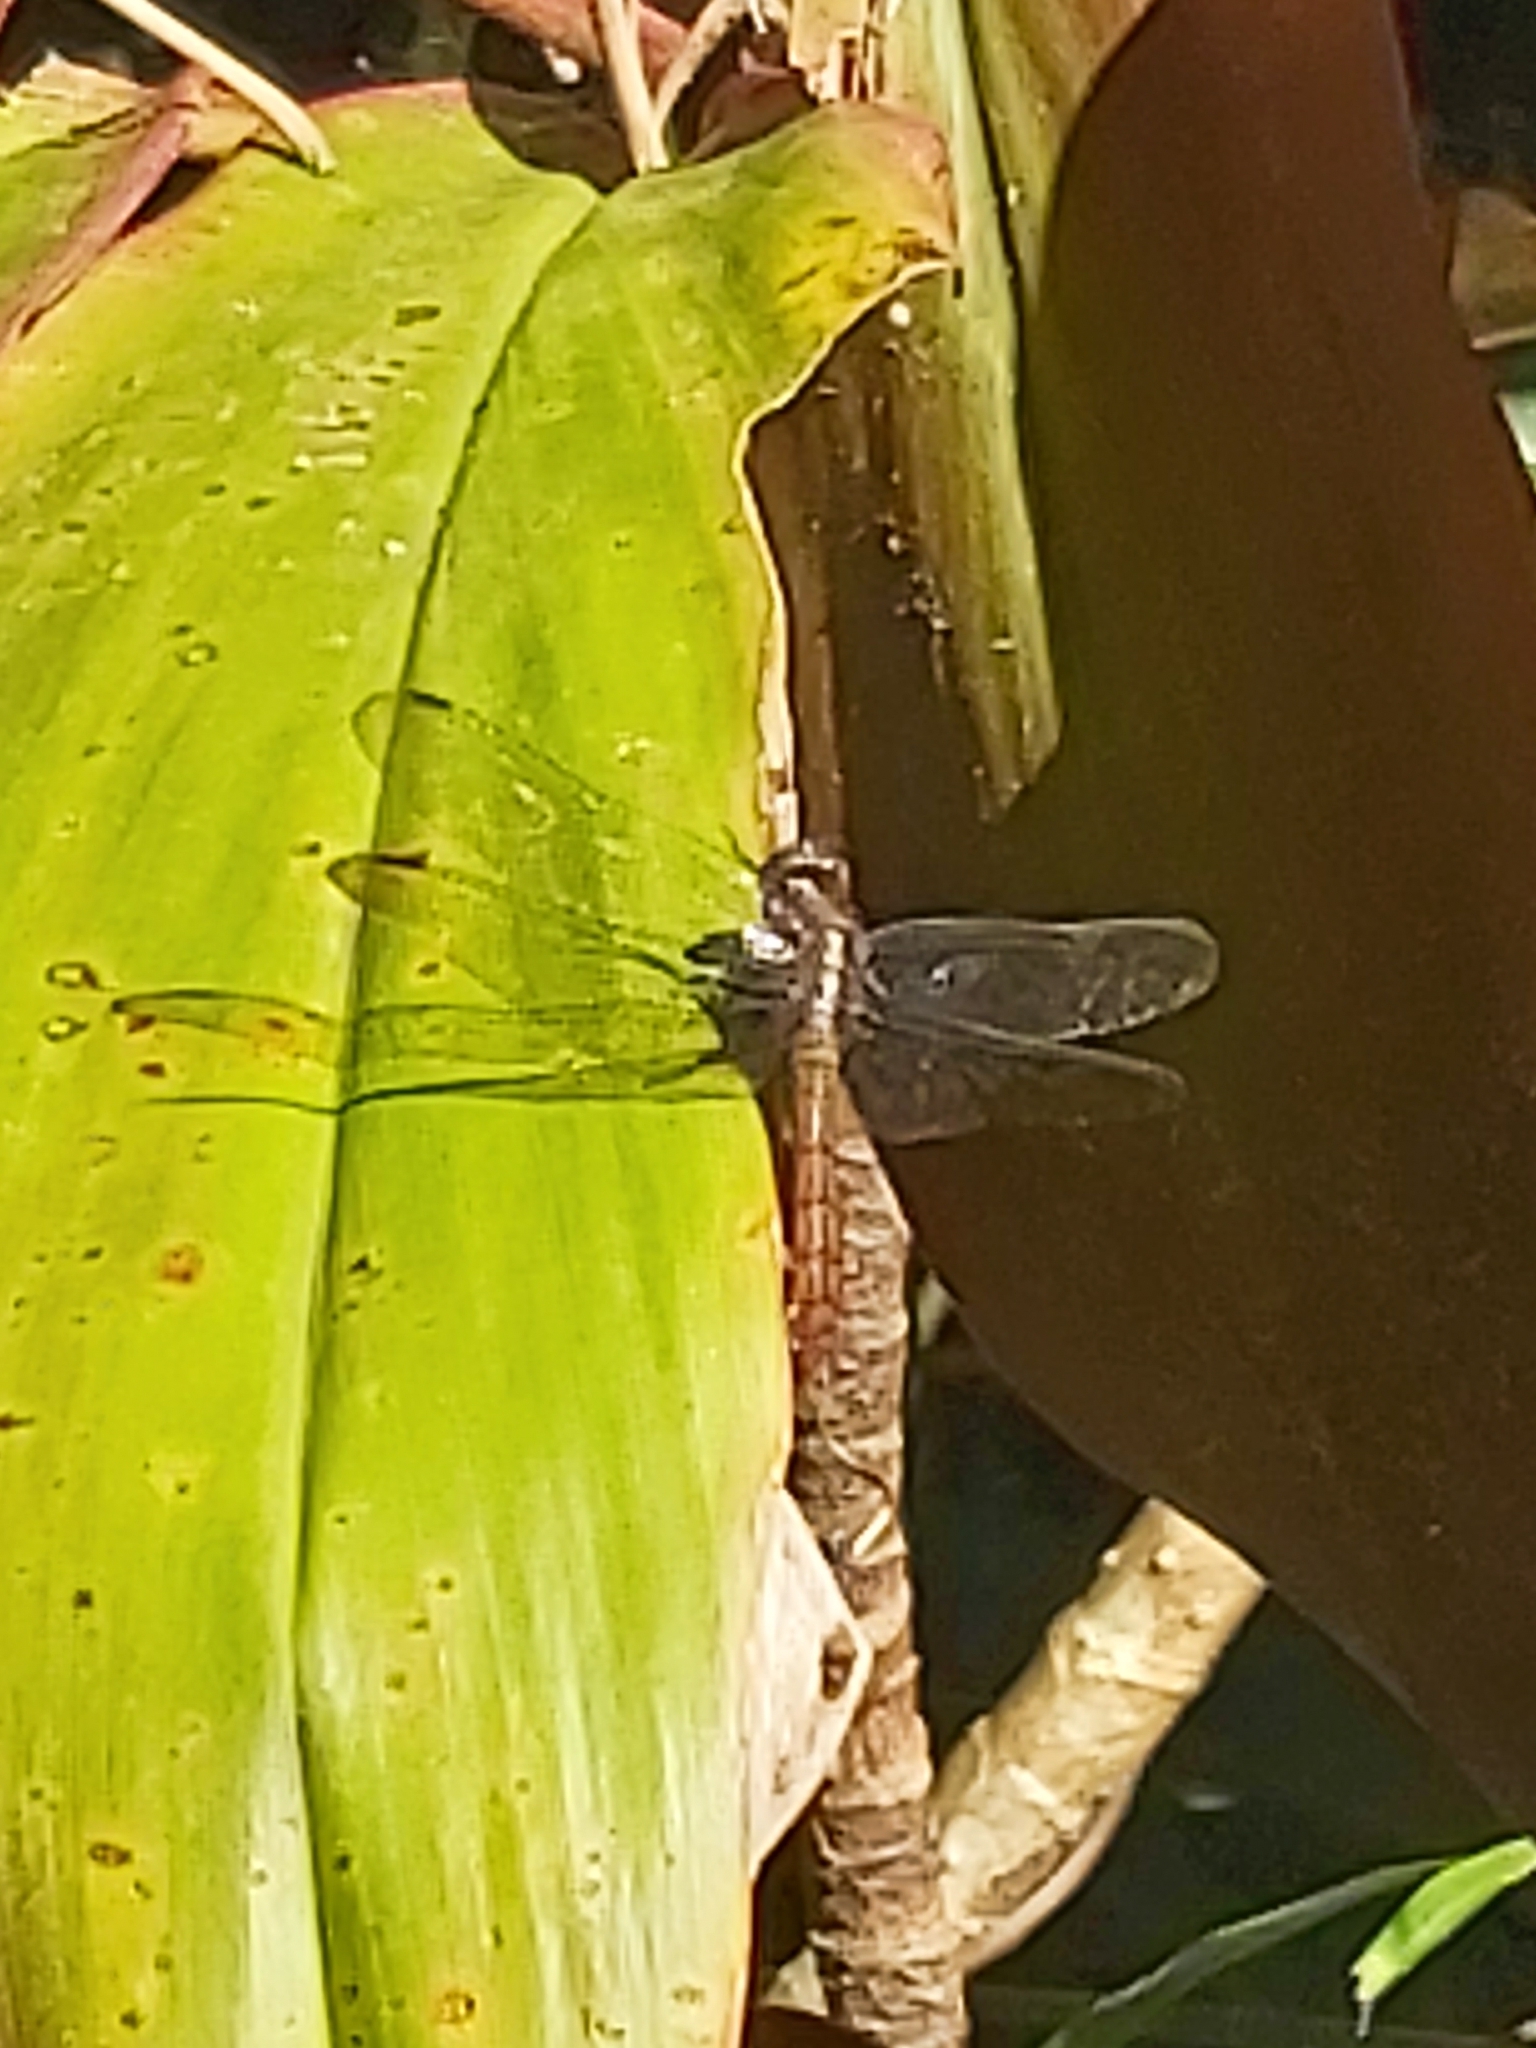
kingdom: Animalia
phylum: Arthropoda
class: Insecta
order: Odonata
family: Libellulidae
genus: Orthetrum
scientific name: Orthetrum villosovittatum
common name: Firery skimmer
